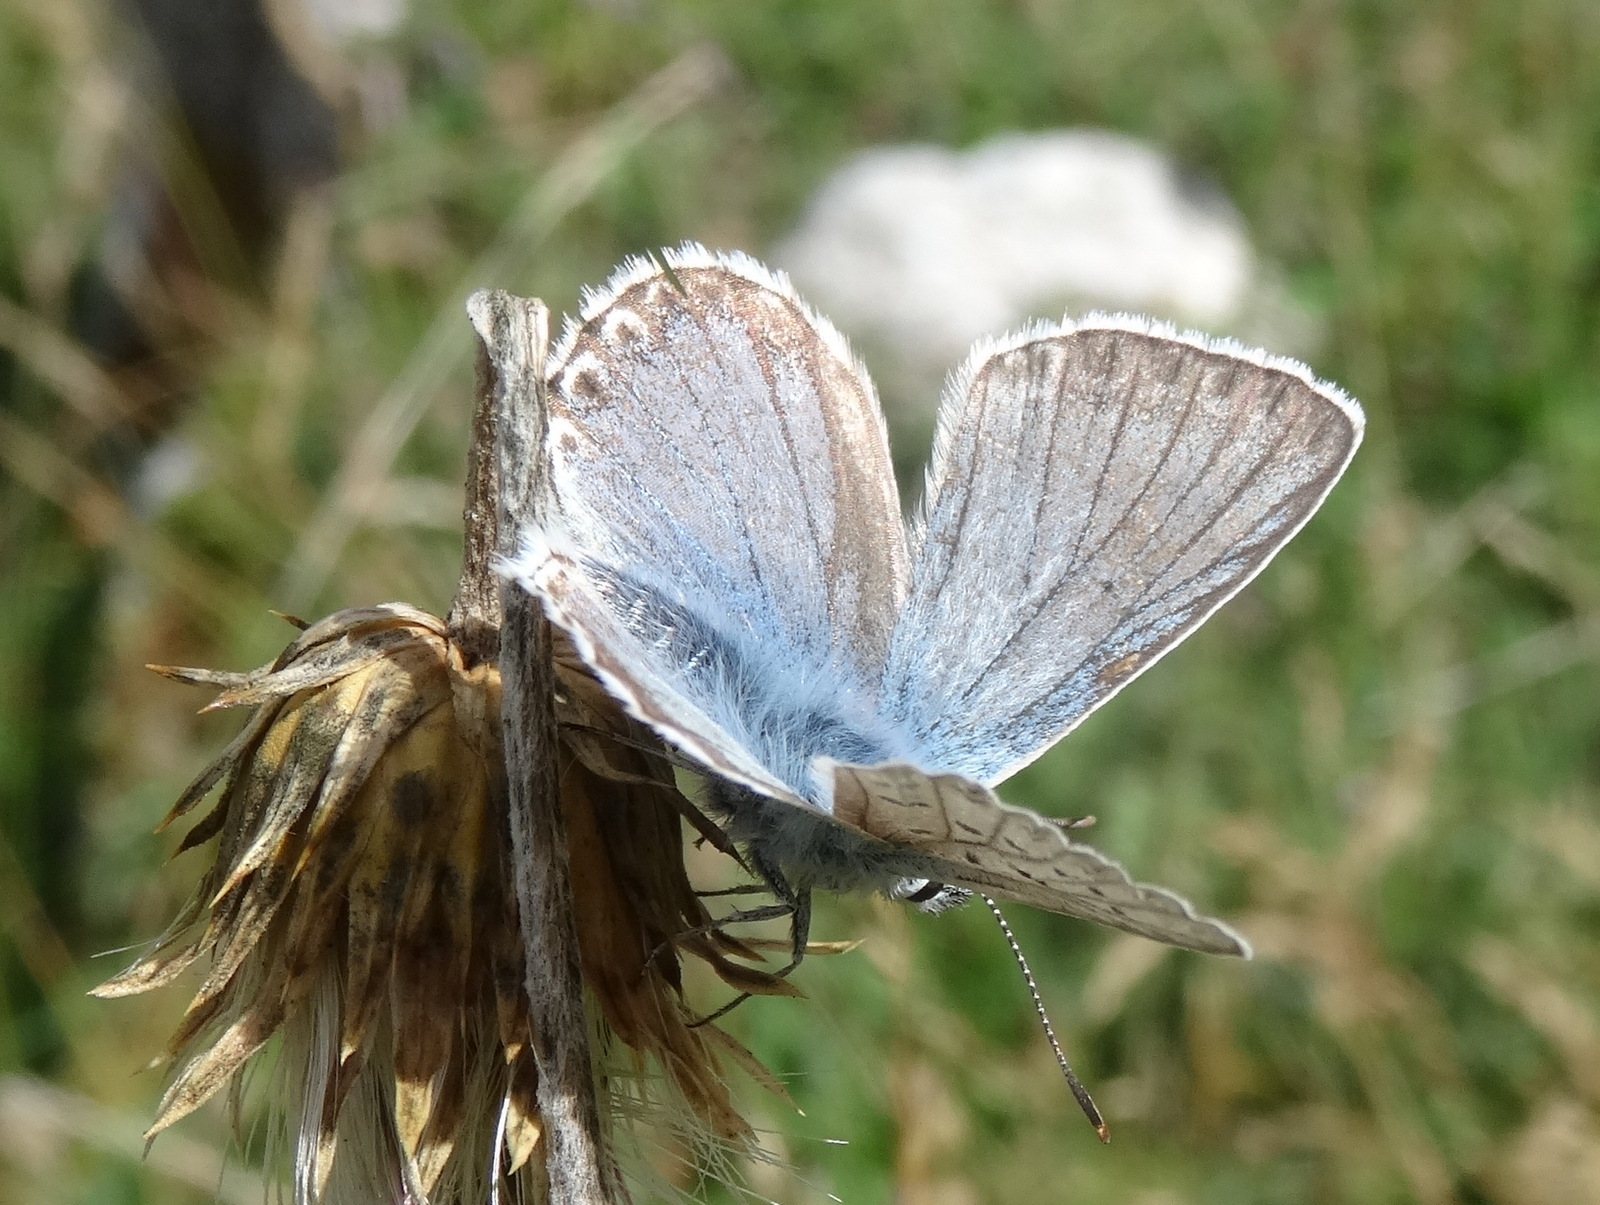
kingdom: Animalia
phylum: Arthropoda
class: Insecta
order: Lepidoptera
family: Lycaenidae
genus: Lysandra
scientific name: Lysandra coridon
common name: Chalkhill blue
